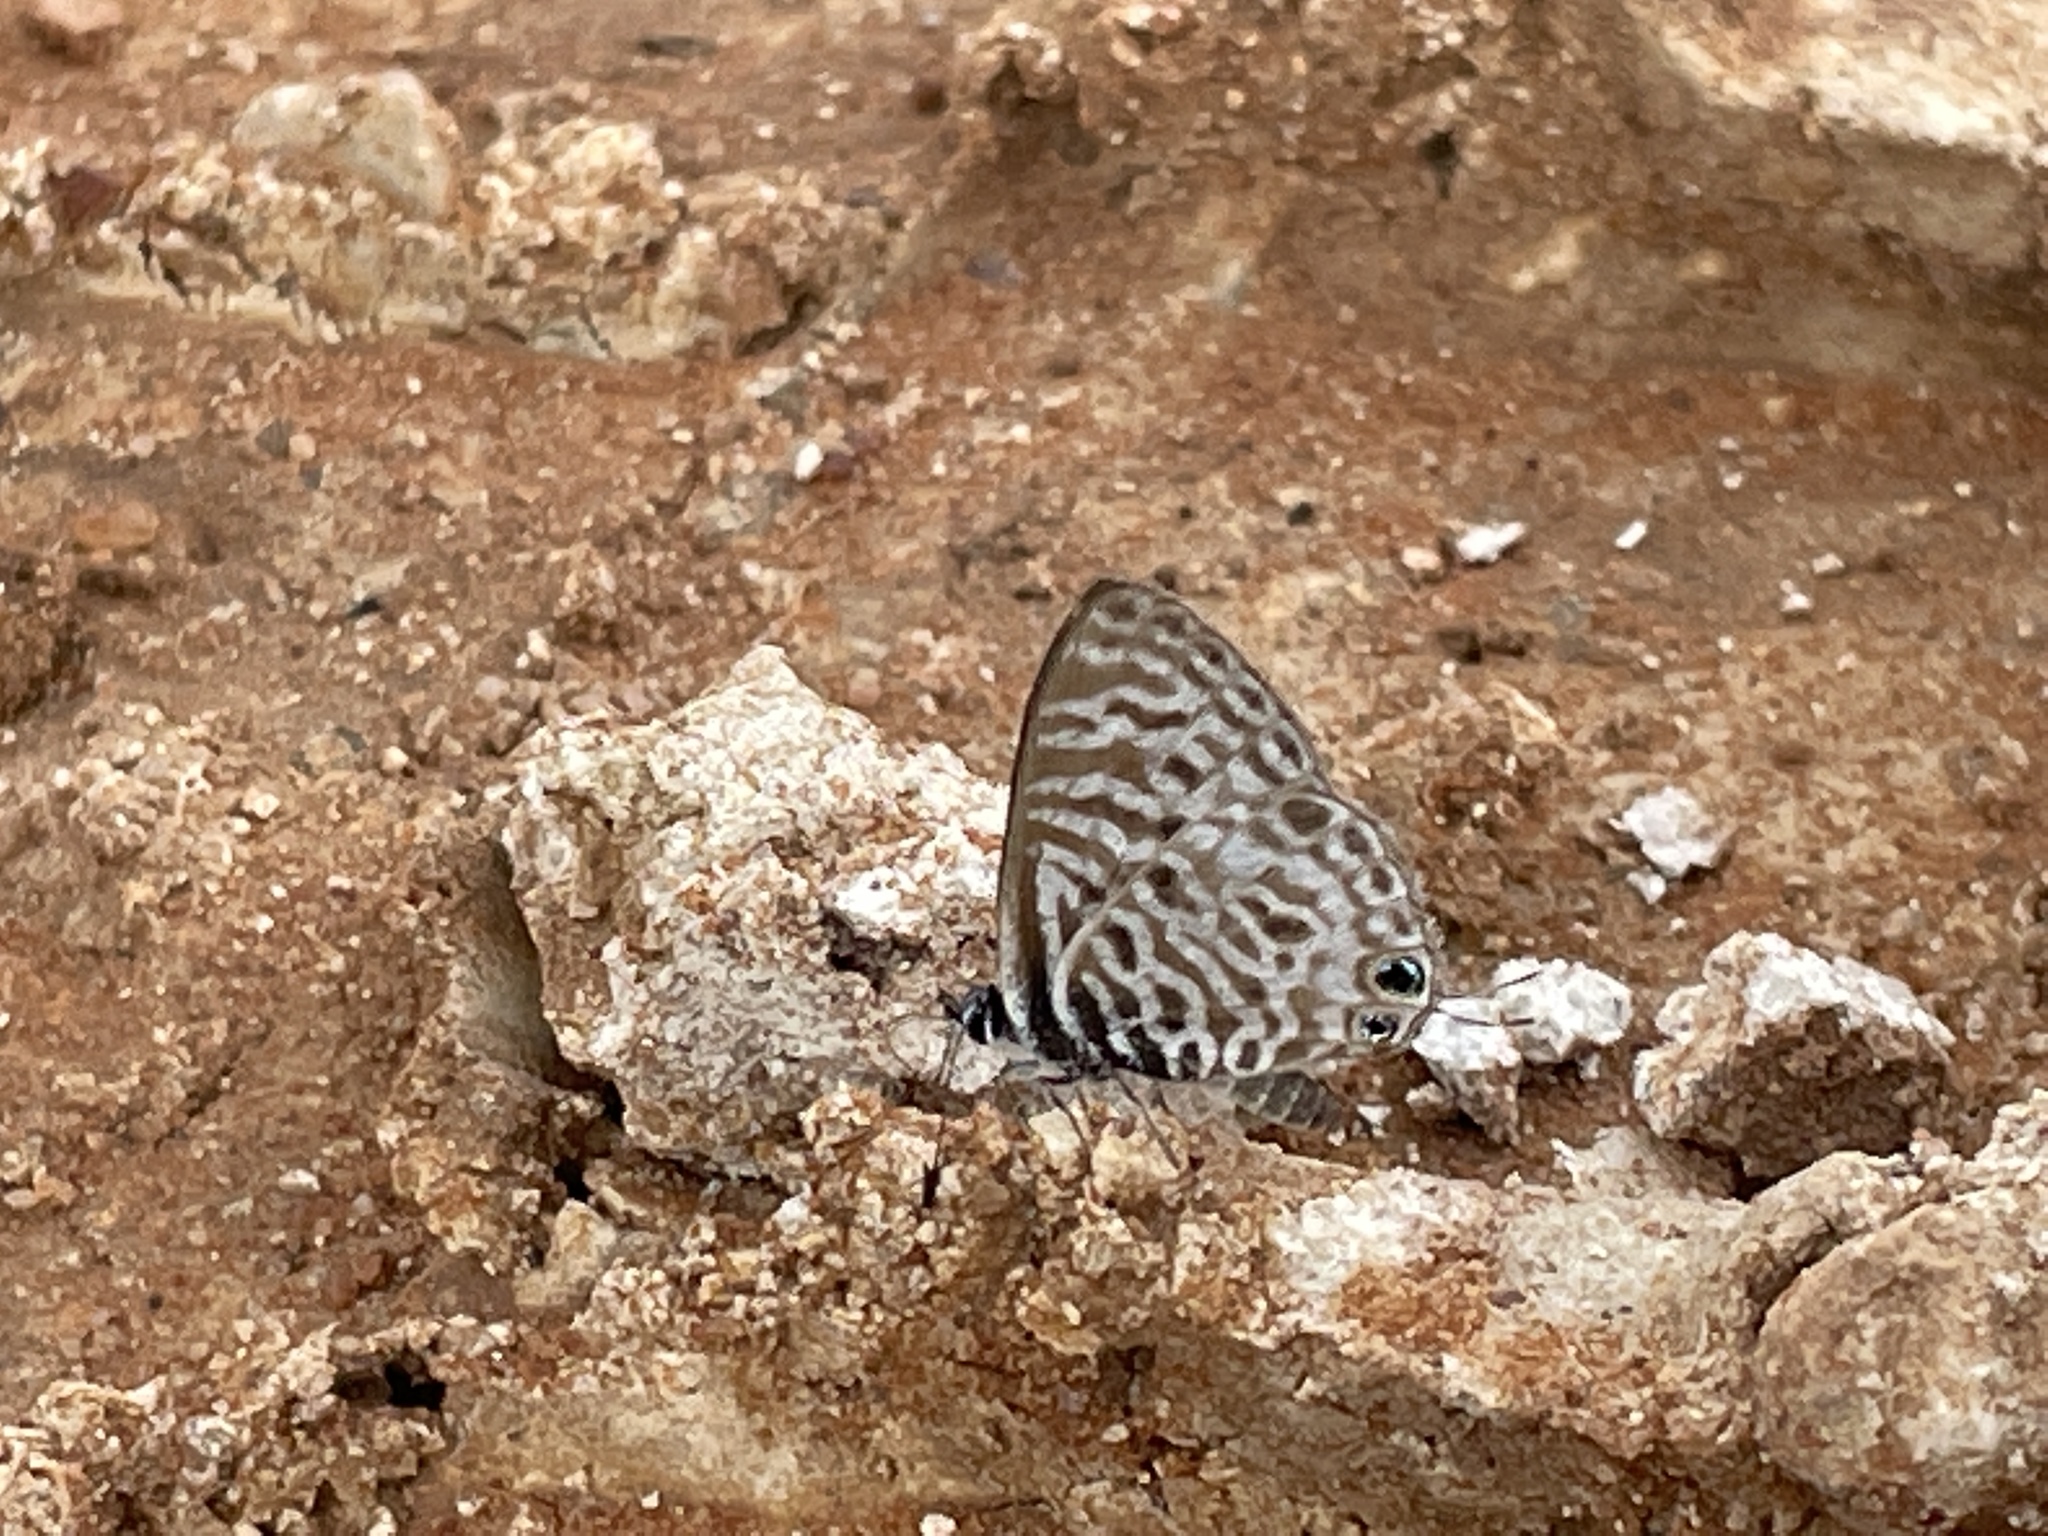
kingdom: Animalia
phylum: Arthropoda
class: Insecta
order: Lepidoptera
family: Lycaenidae
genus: Leptotes
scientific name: Leptotes
